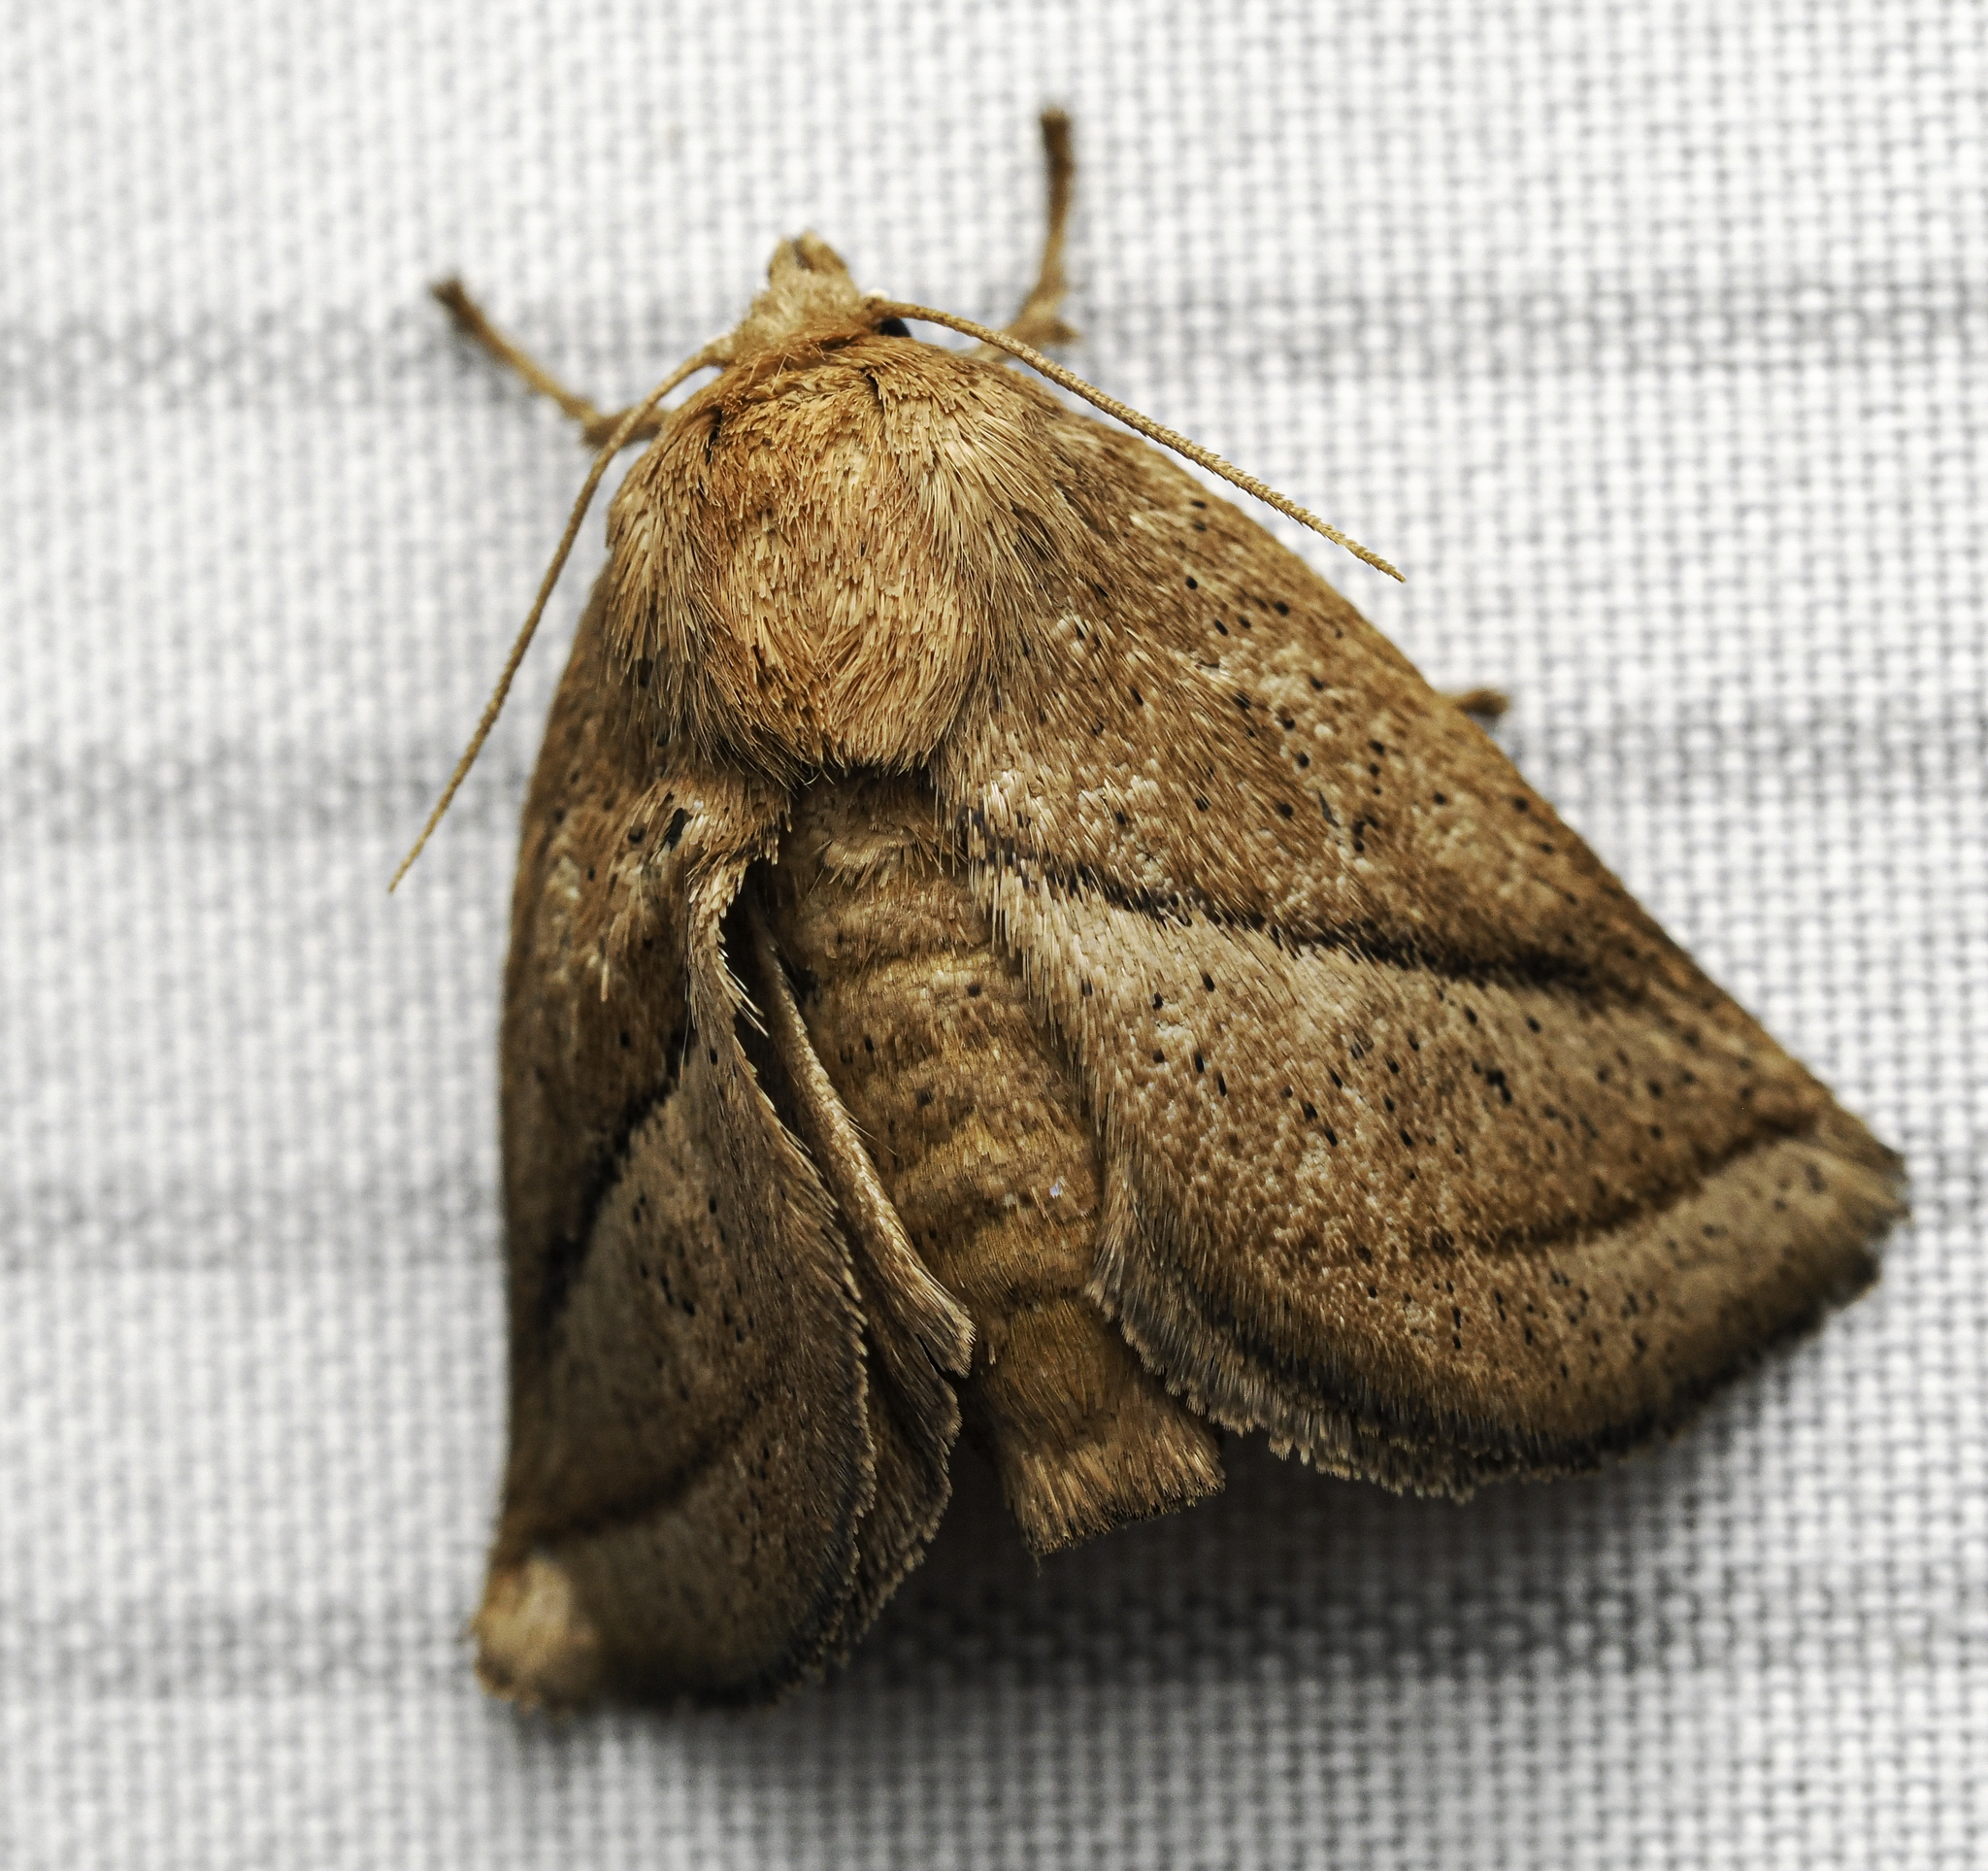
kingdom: Animalia
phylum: Arthropoda
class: Insecta
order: Lepidoptera
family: Limacodidae
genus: Natada
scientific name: Natada nasoni
